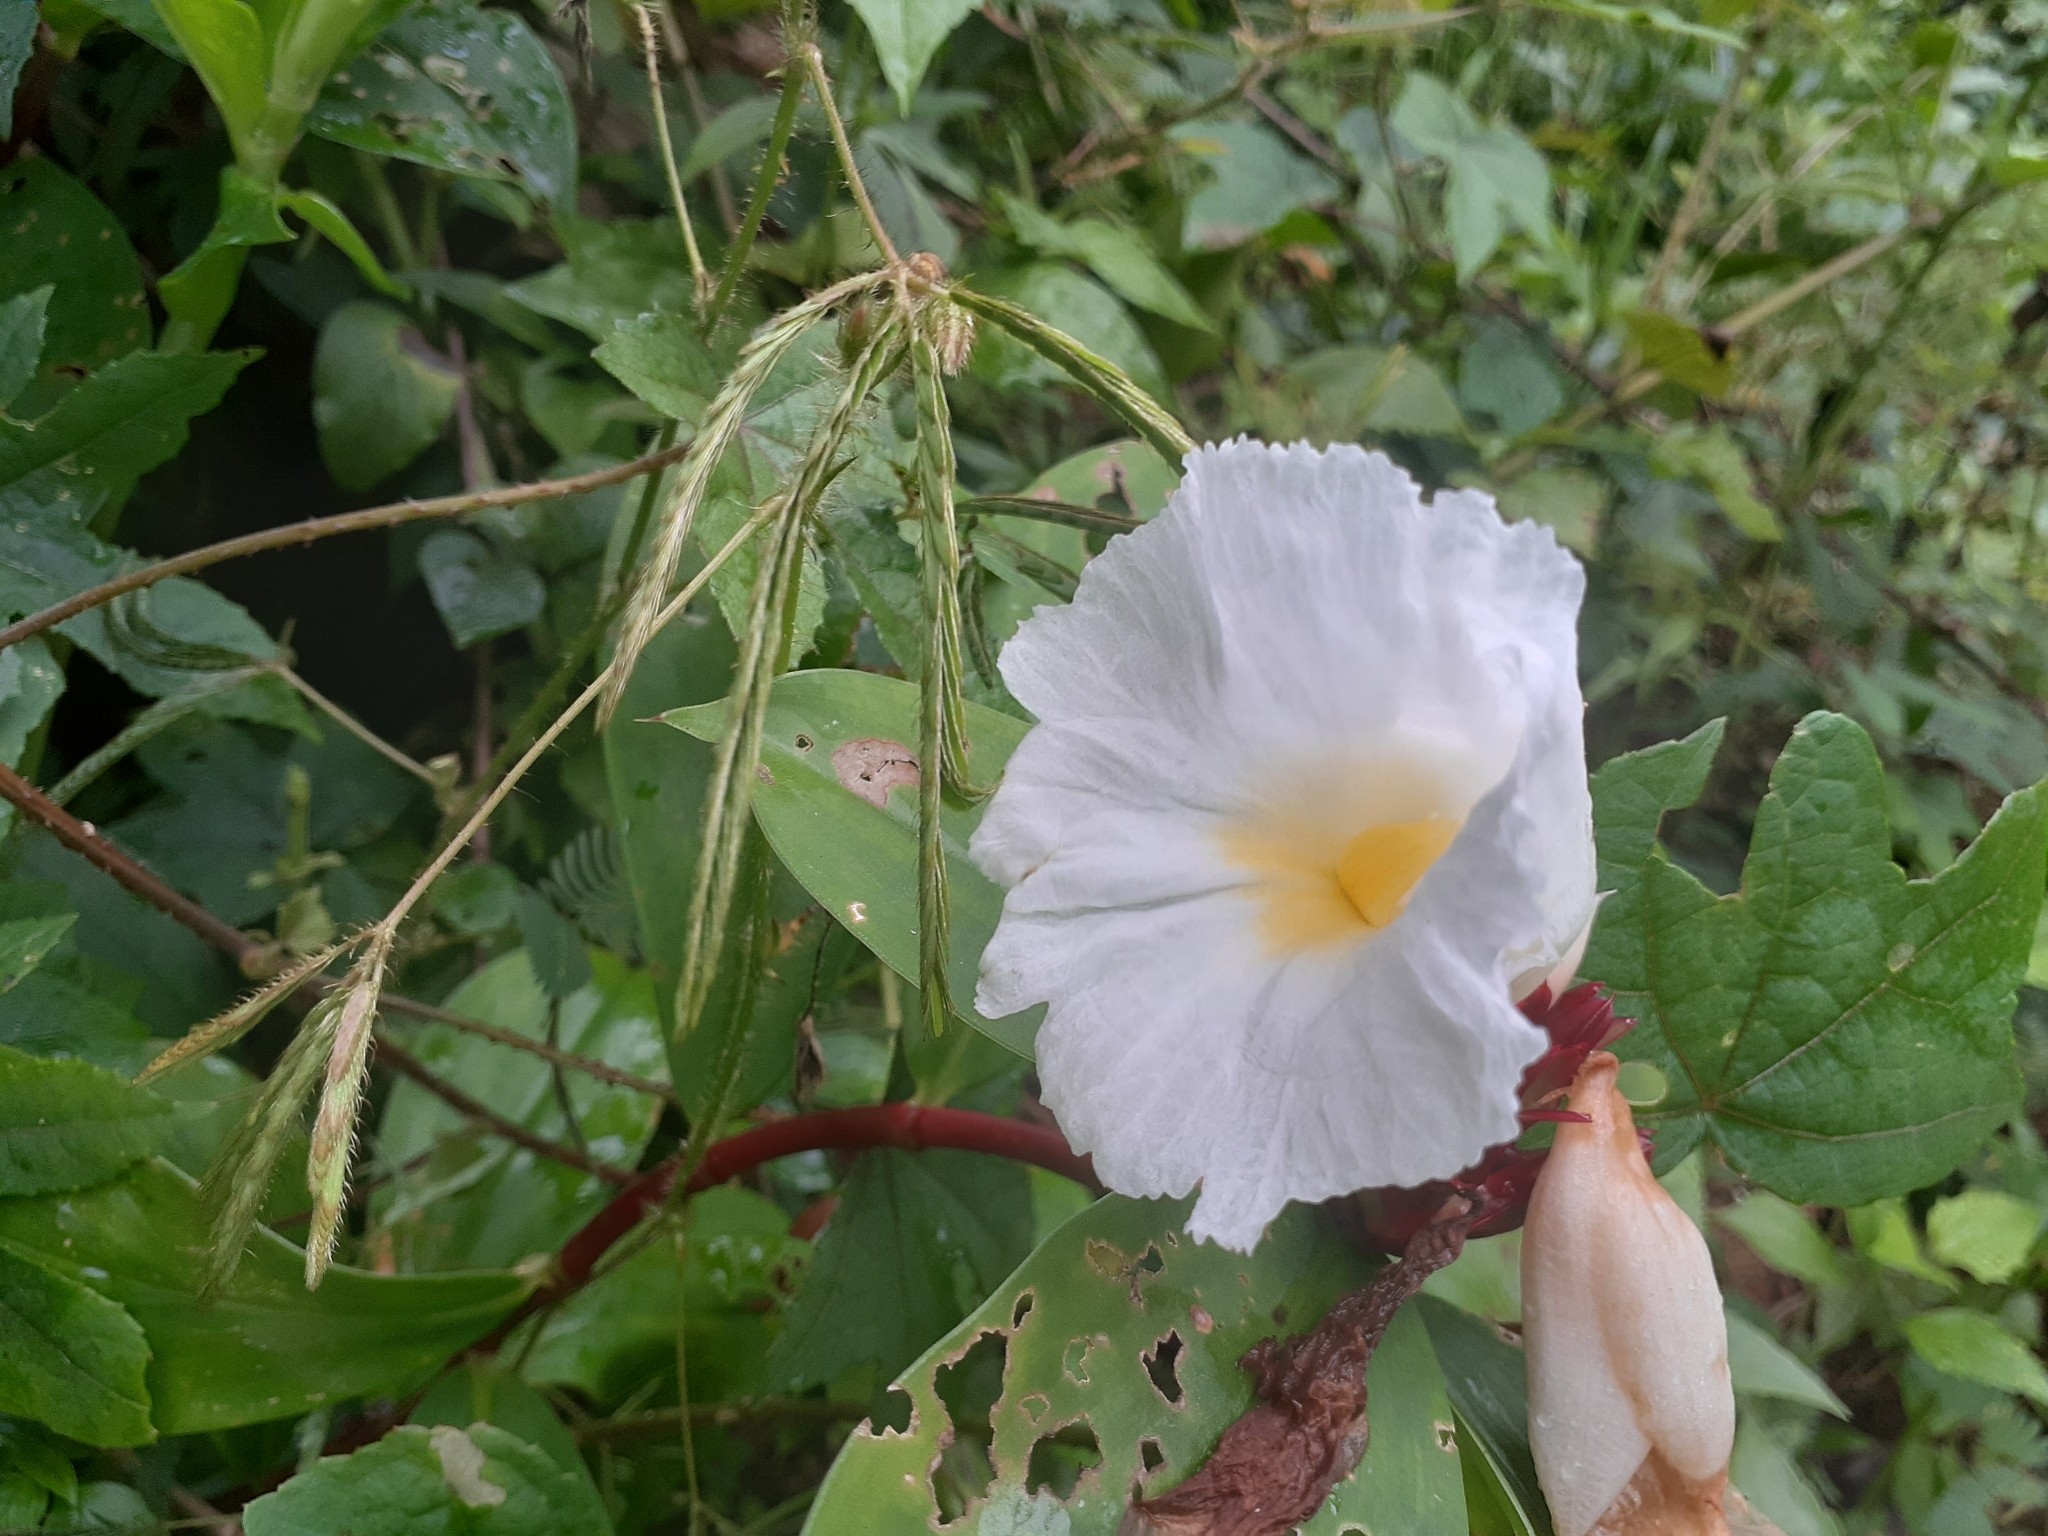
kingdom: Plantae
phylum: Tracheophyta
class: Liliopsida
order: Zingiberales
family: Costaceae
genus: Hellenia
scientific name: Hellenia speciosa
